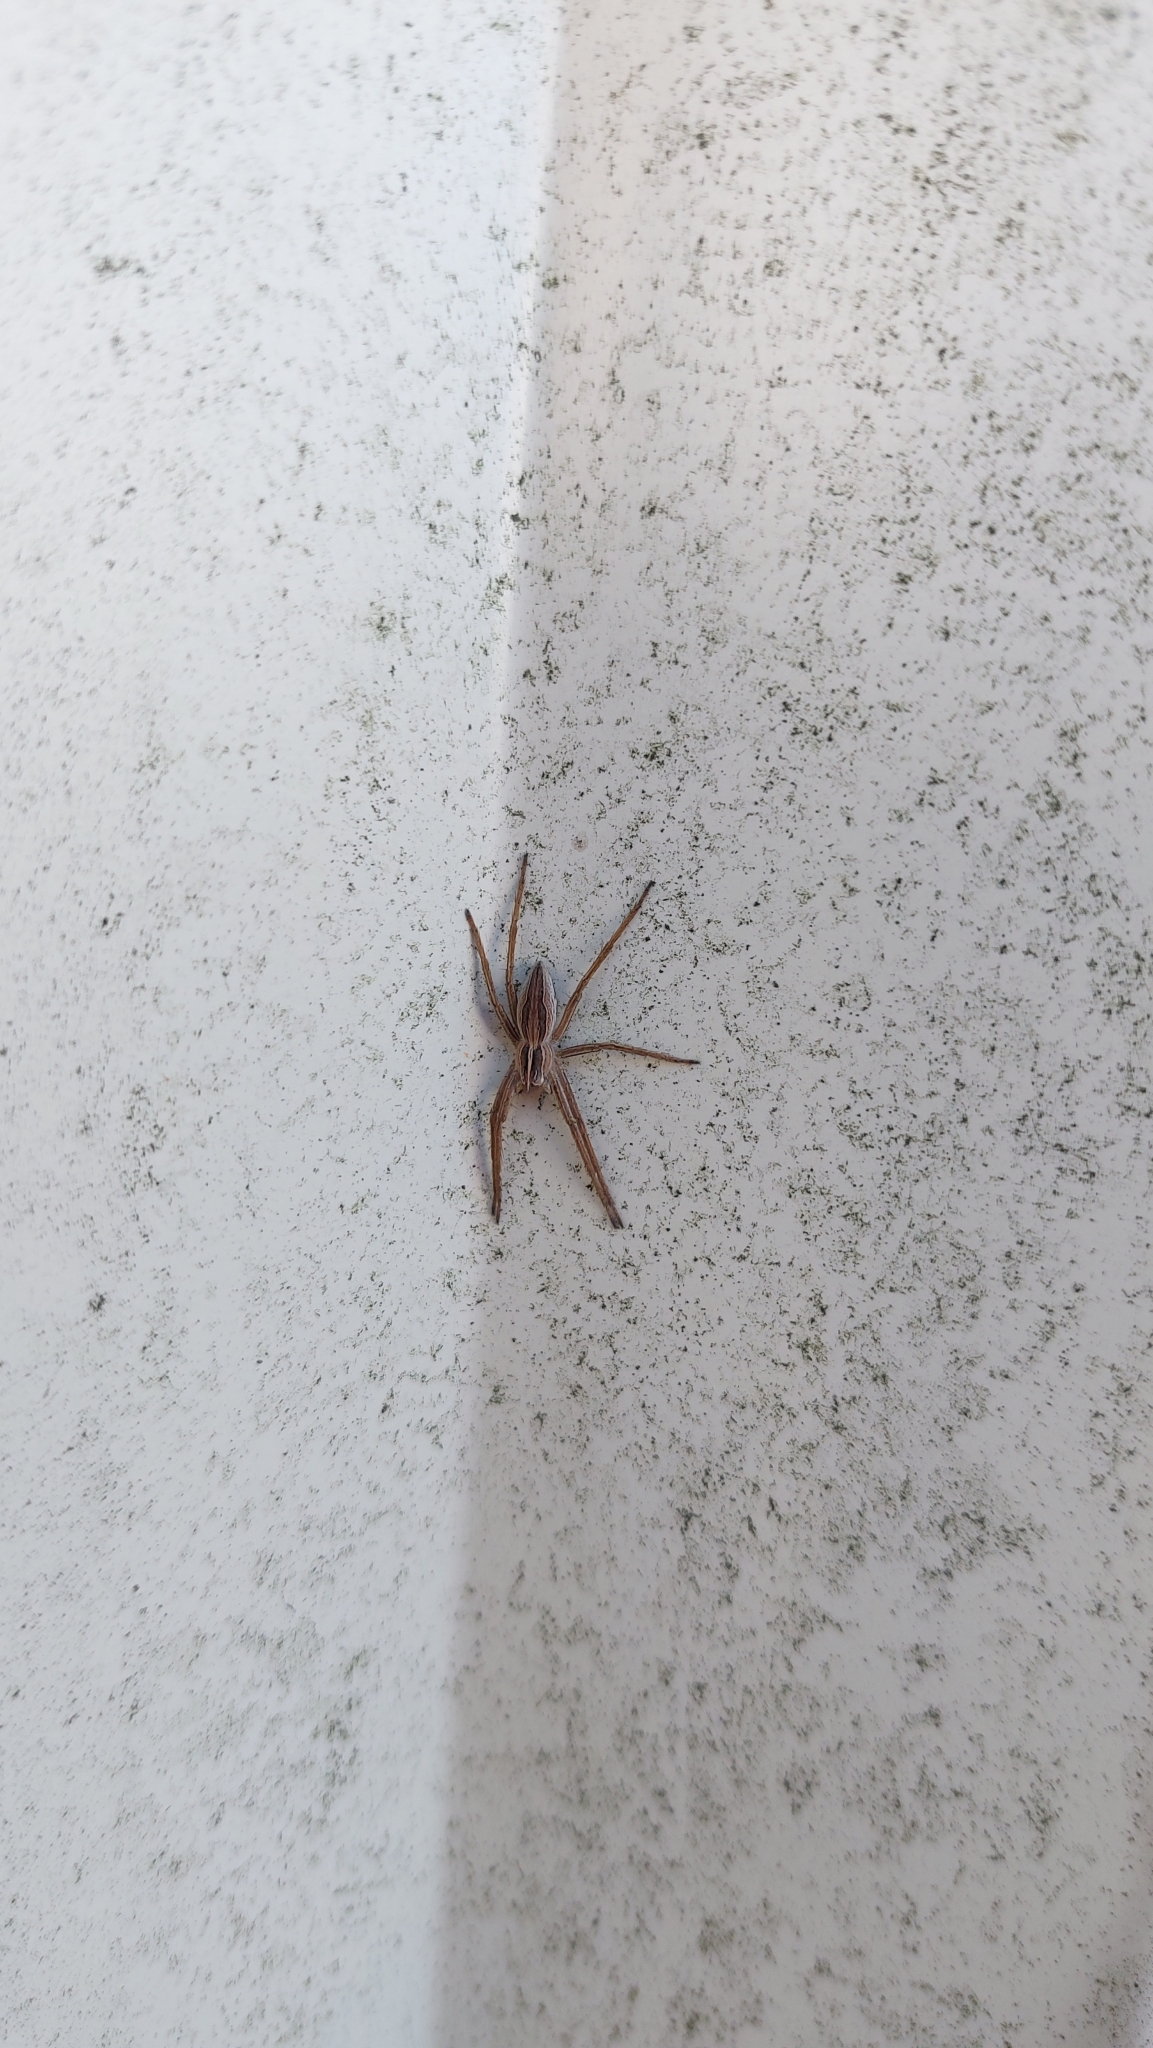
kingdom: Animalia
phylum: Arthropoda
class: Arachnida
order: Araneae
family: Pisauridae
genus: Pisaura
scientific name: Pisaura mirabilis
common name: Tent spider
